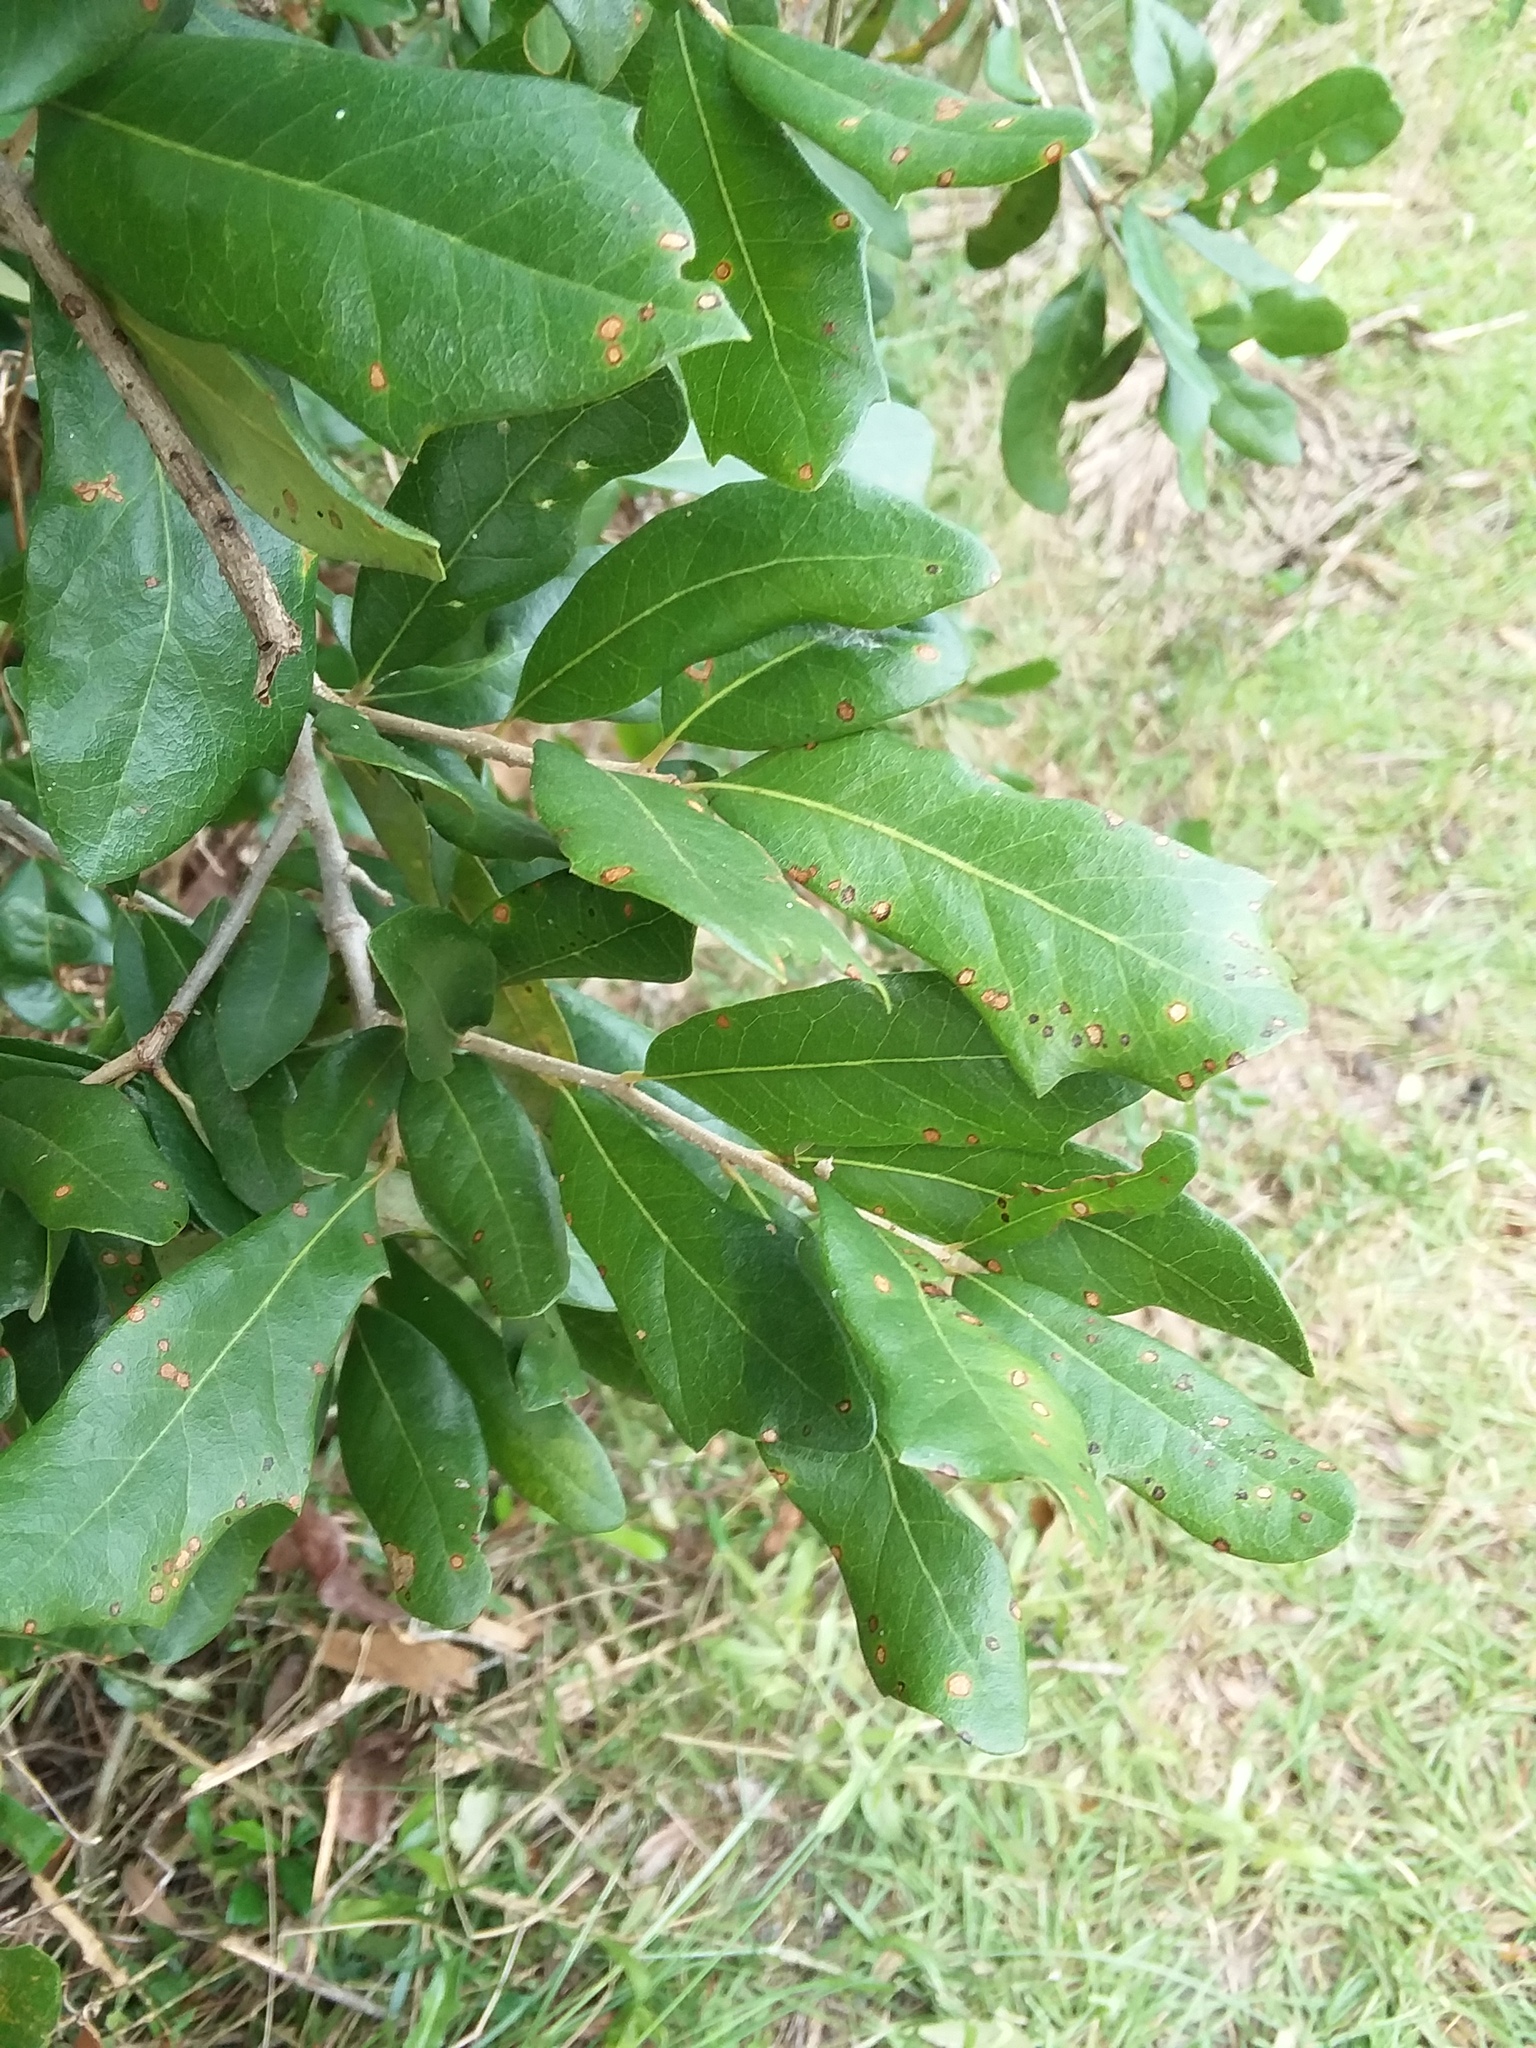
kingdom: Animalia
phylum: Arthropoda
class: Insecta
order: Hymenoptera
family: Cynipidae
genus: Andricus
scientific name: Andricus quercusfoliatus
